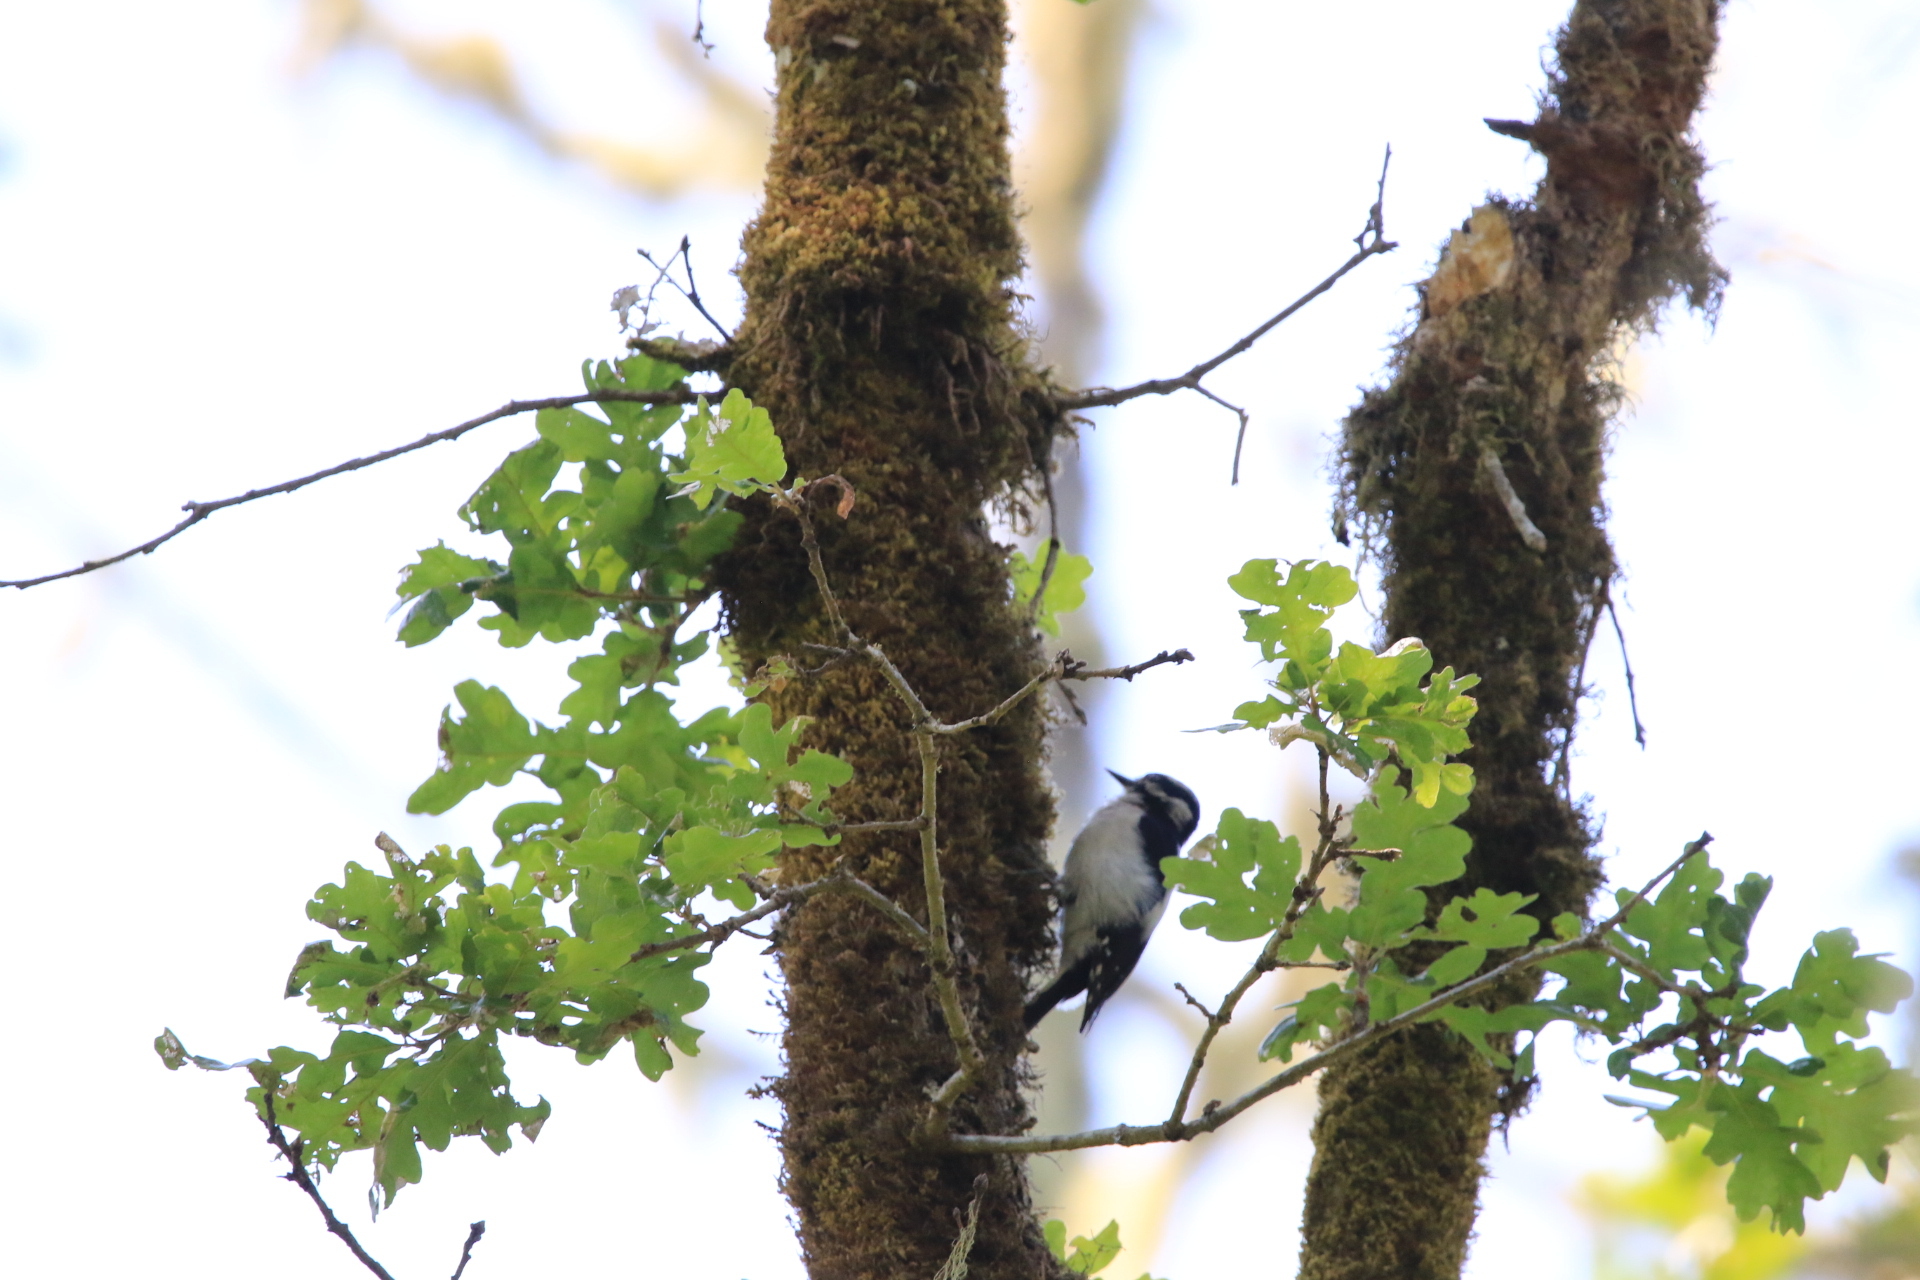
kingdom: Animalia
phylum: Chordata
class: Aves
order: Piciformes
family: Picidae
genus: Dryobates
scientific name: Dryobates pubescens
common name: Downy woodpecker
